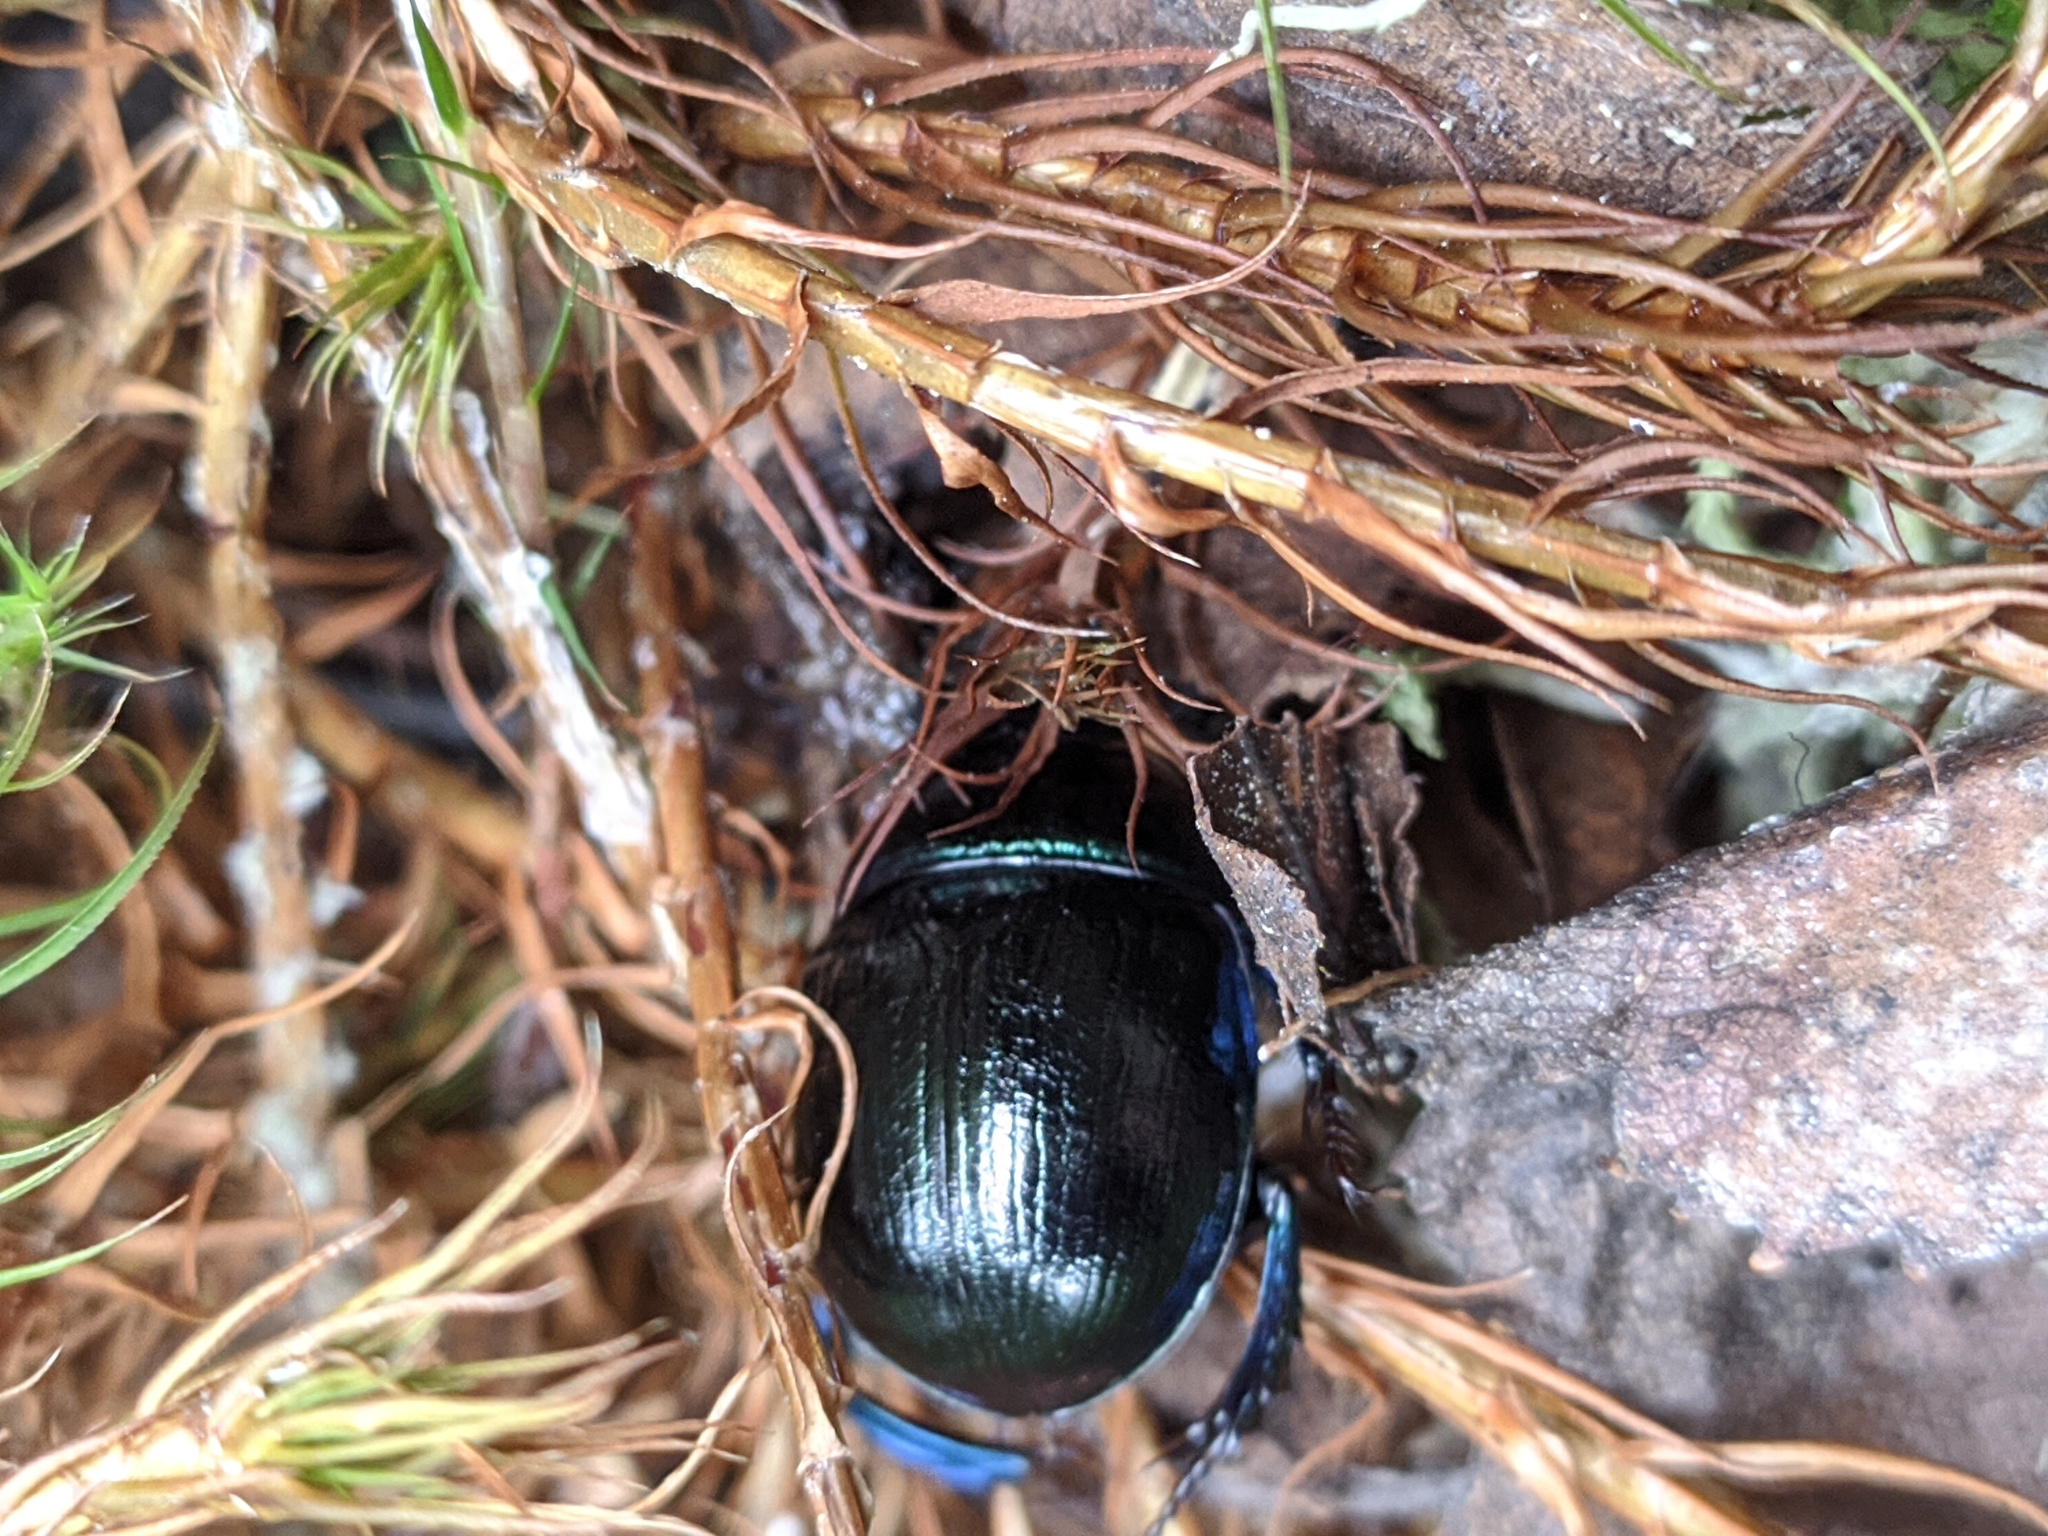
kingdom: Animalia
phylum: Arthropoda
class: Insecta
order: Coleoptera
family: Geotrupidae
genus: Anoplotrupes
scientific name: Anoplotrupes stercorosus
